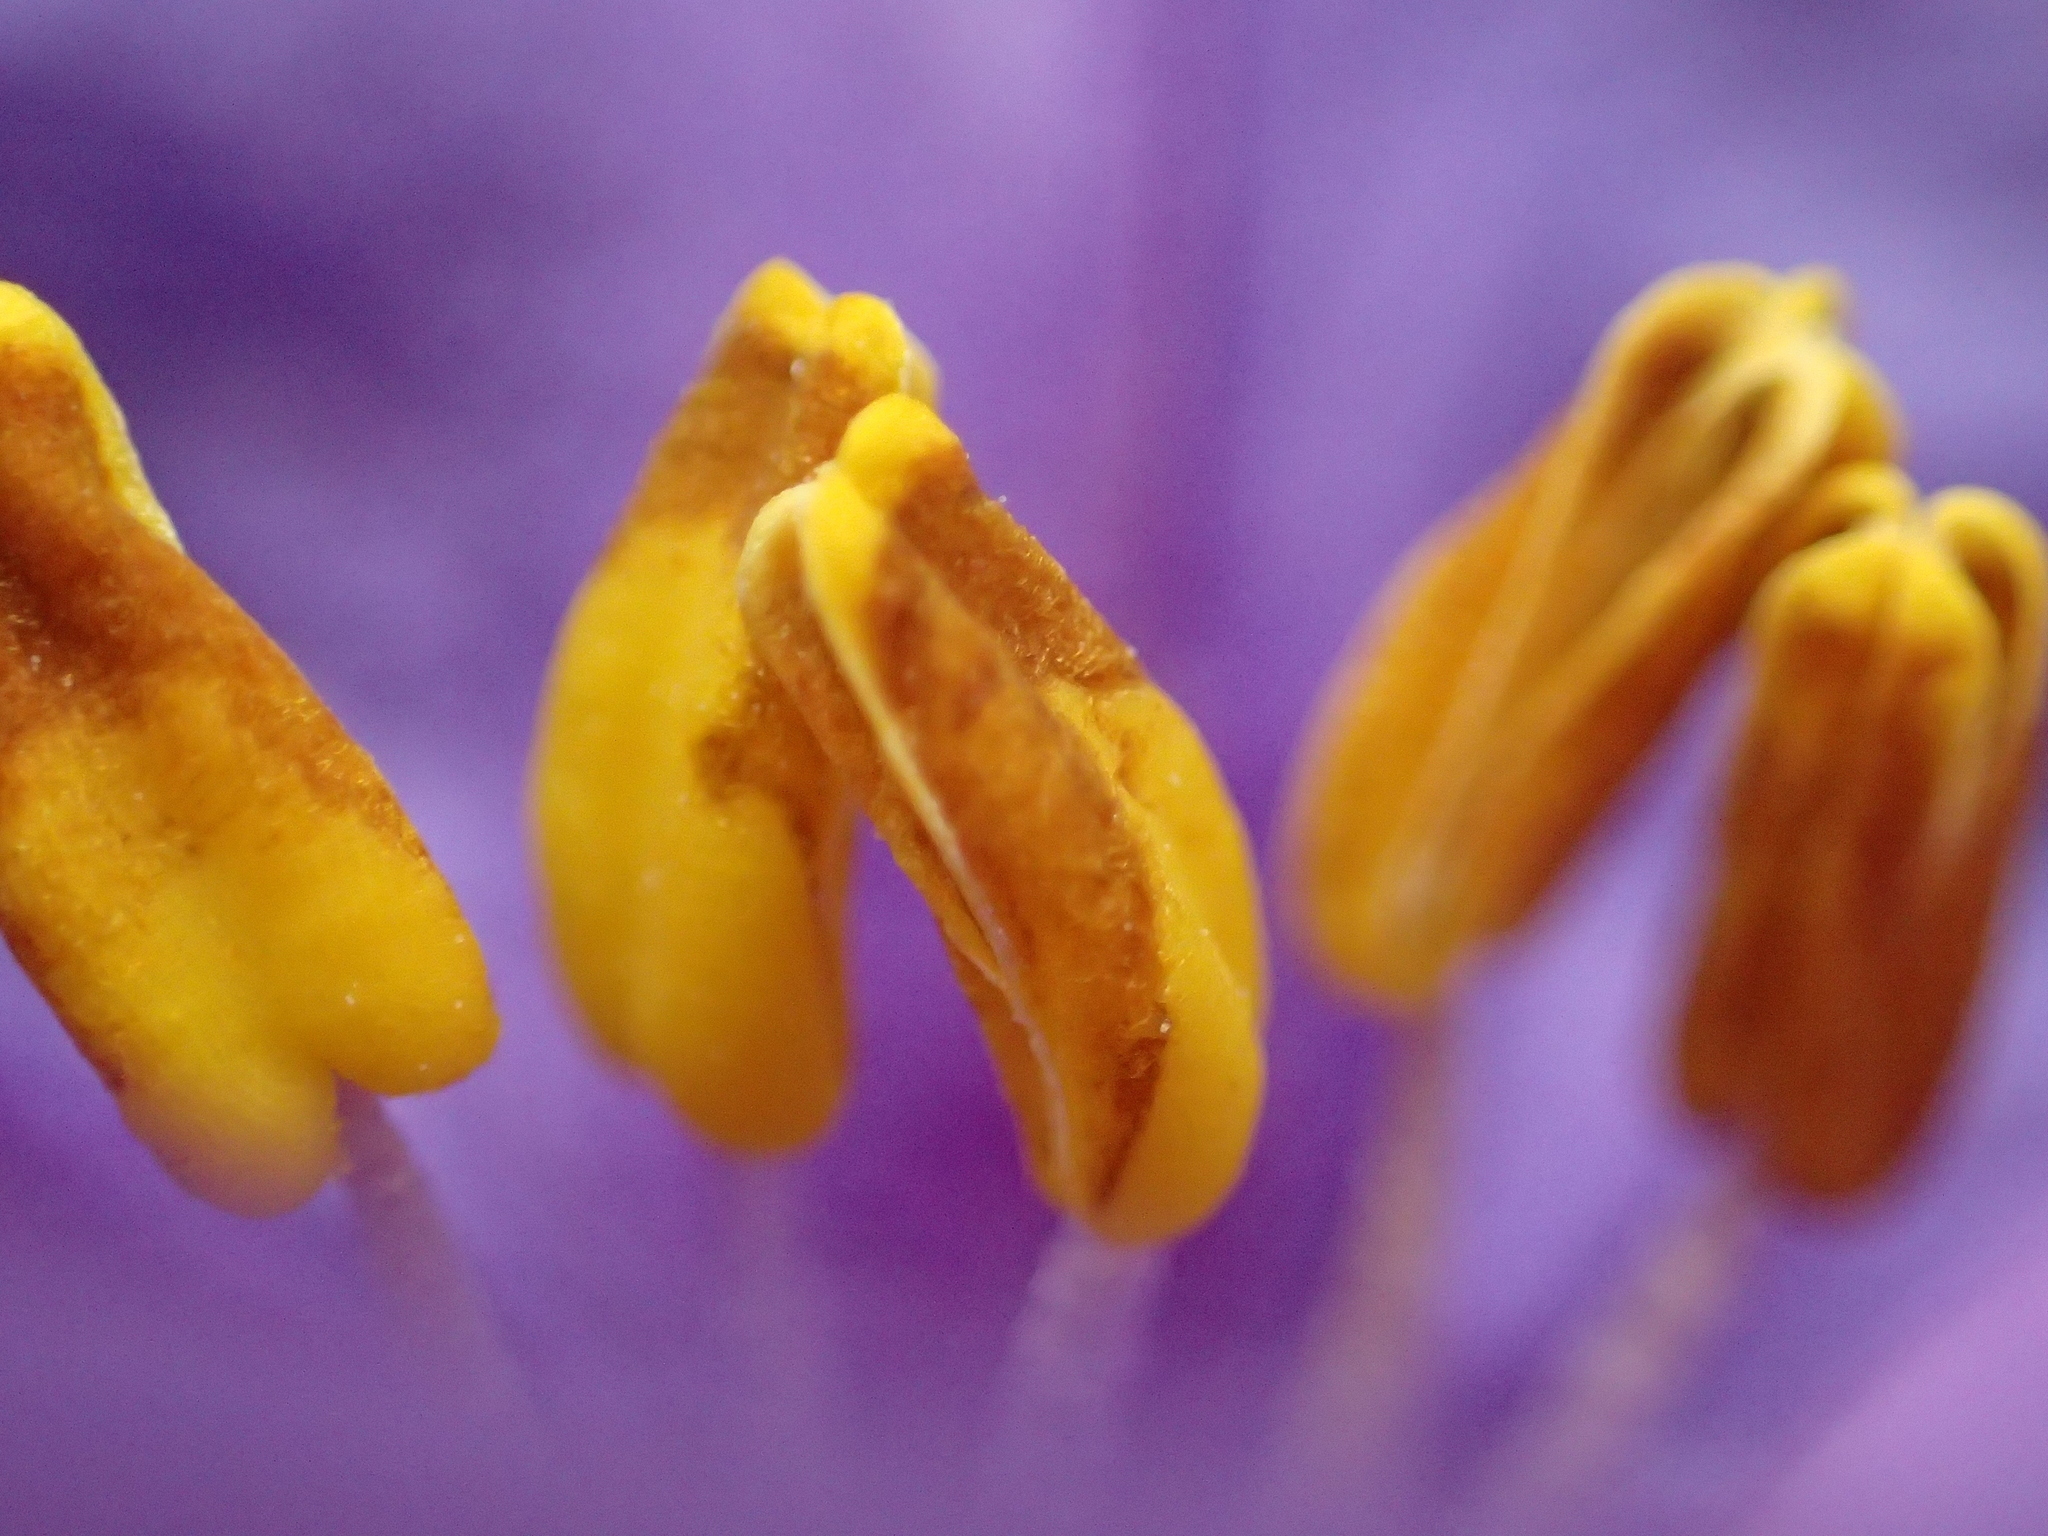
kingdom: Plantae
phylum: Tracheophyta
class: Magnoliopsida
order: Solanales
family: Solanaceae
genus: Solanum
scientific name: Solanum laciniatum
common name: Kangaroo-apple
